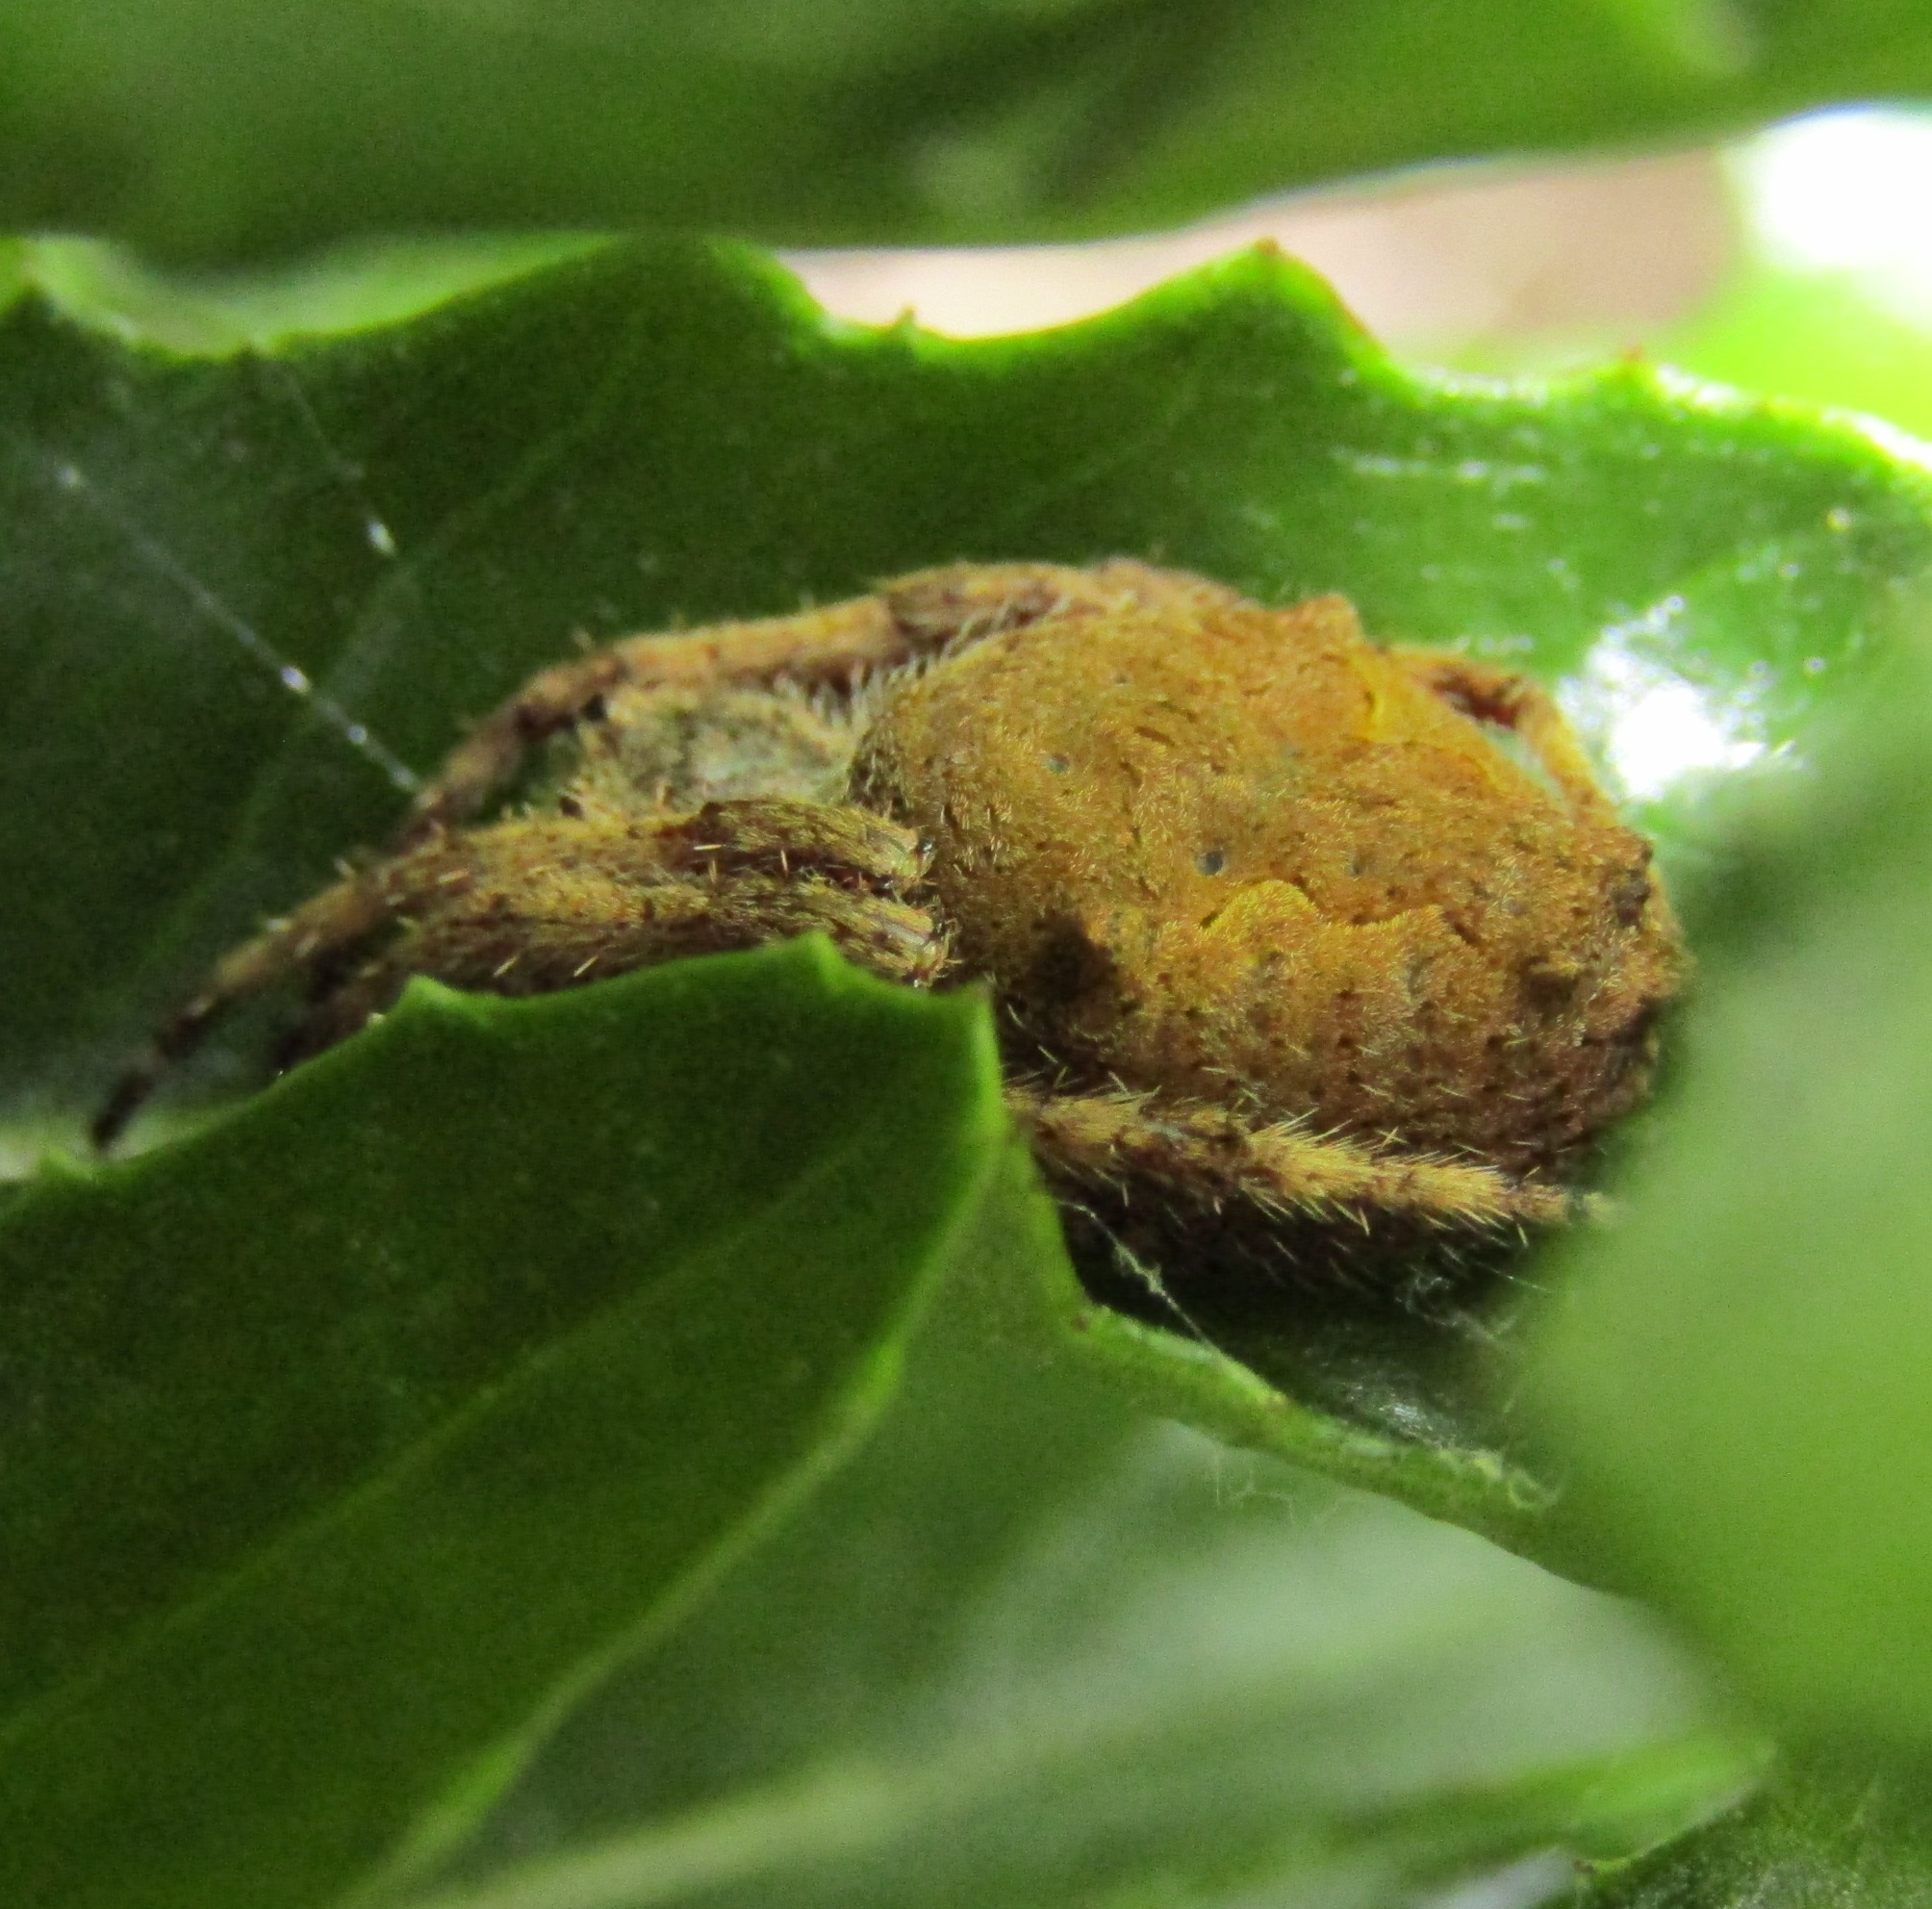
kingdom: Animalia
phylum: Arthropoda
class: Arachnida
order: Araneae
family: Araneidae
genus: Eriophora
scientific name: Eriophora pustulosa
